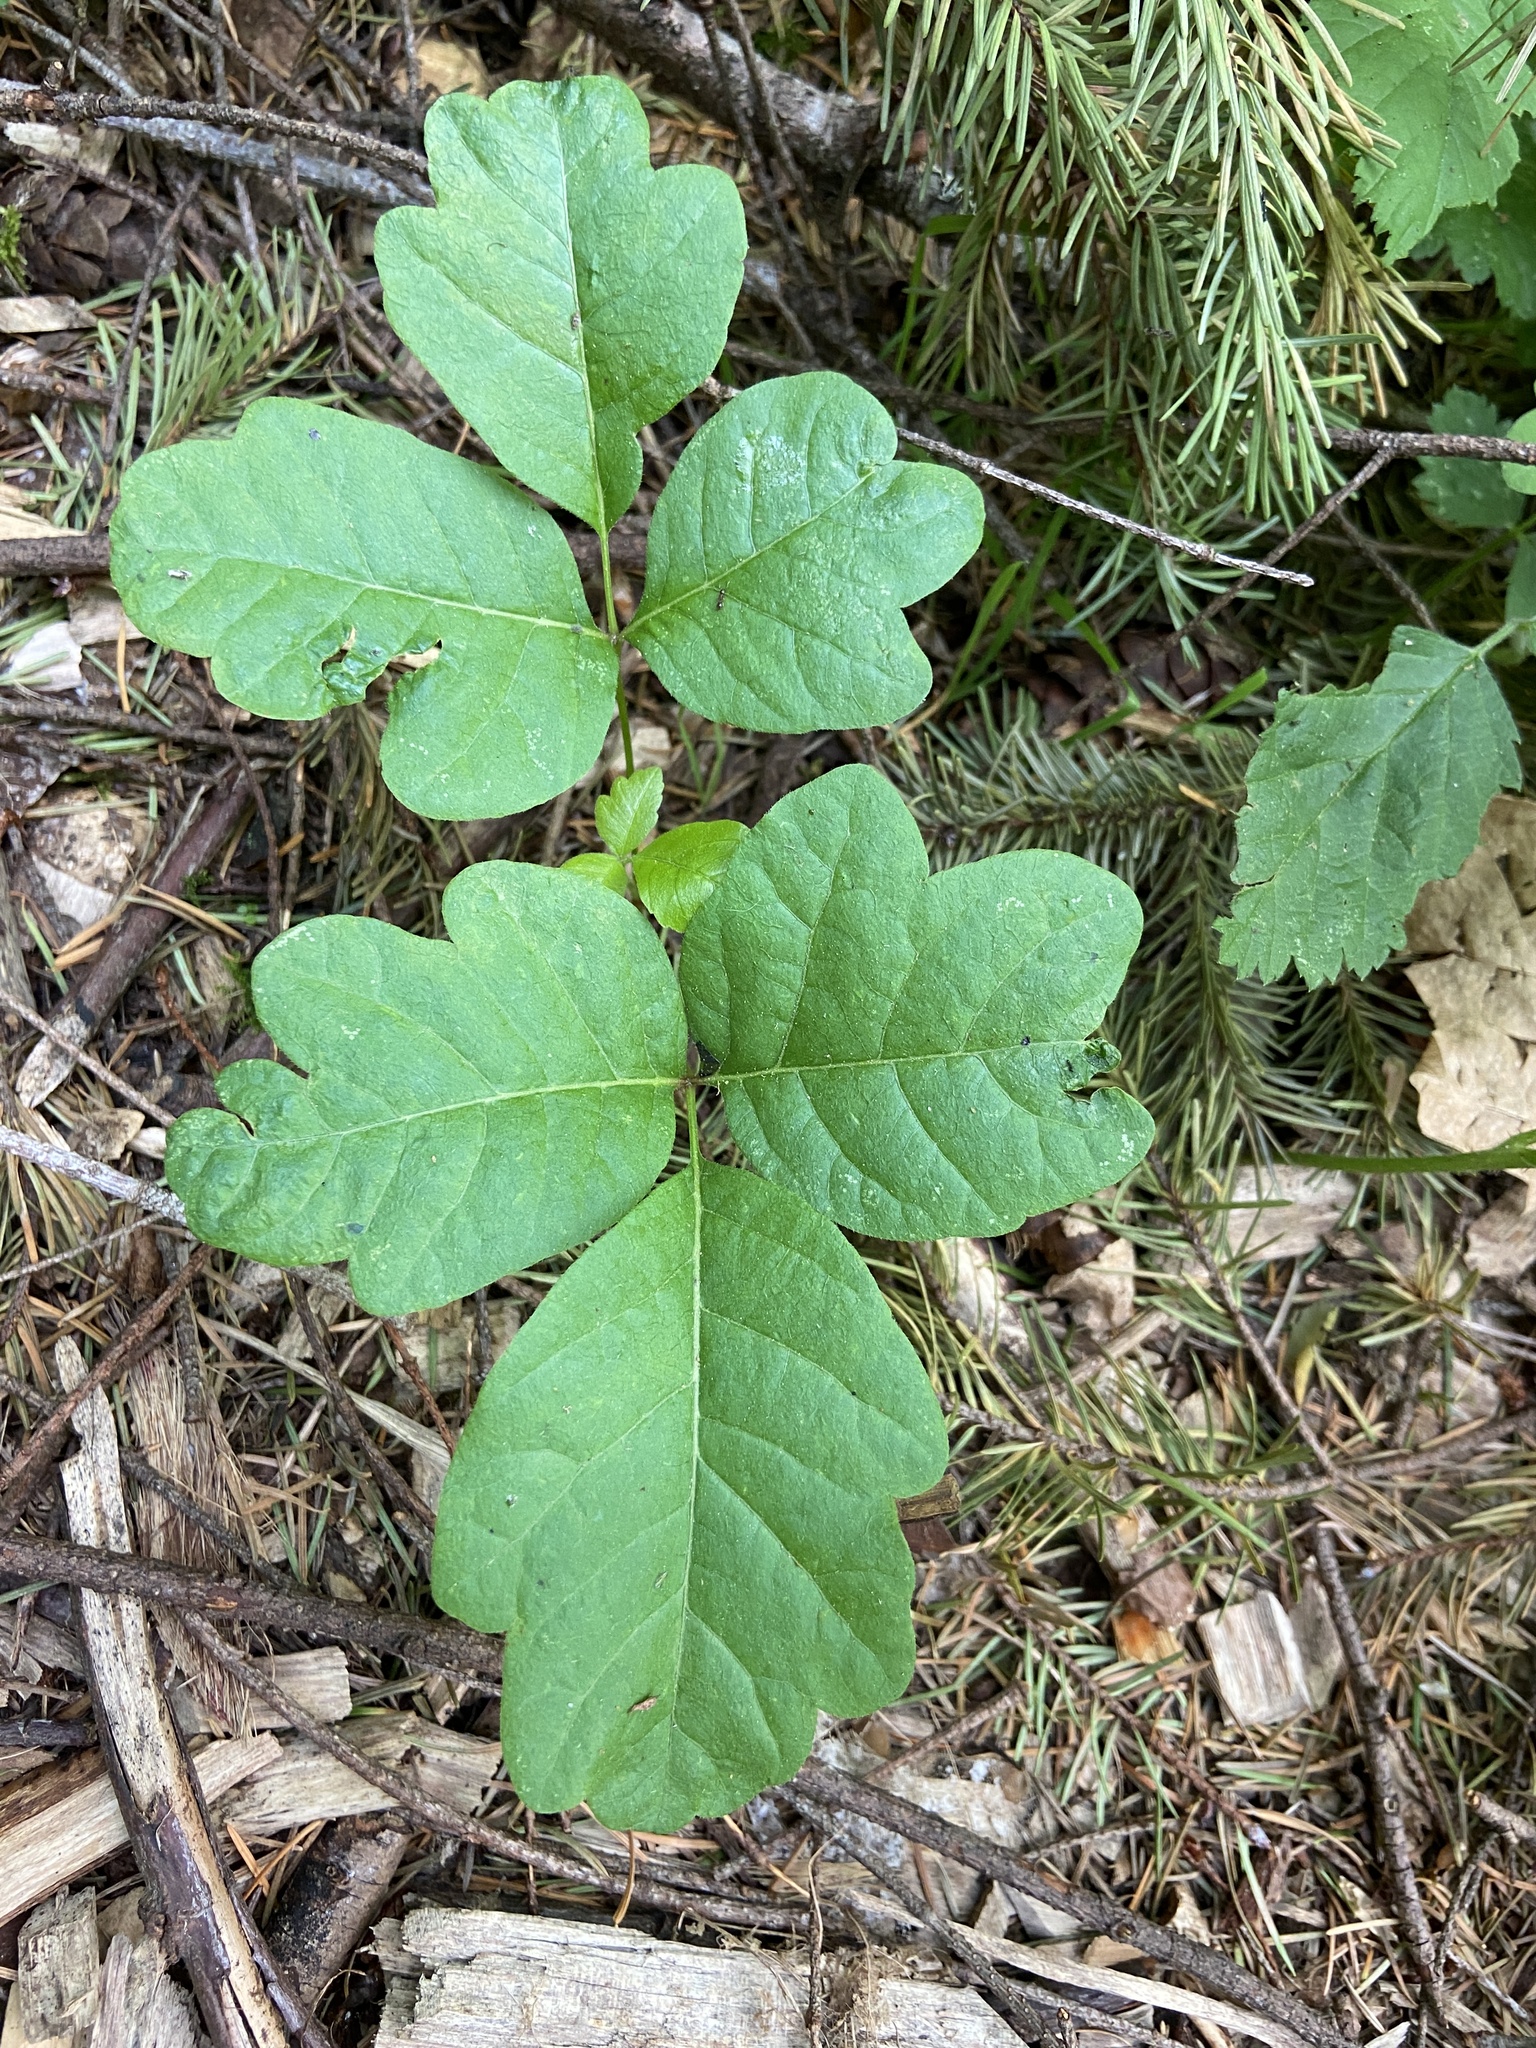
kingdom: Plantae
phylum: Tracheophyta
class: Magnoliopsida
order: Sapindales
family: Anacardiaceae
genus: Toxicodendron
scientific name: Toxicodendron diversilobum
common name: Pacific poison-oak
